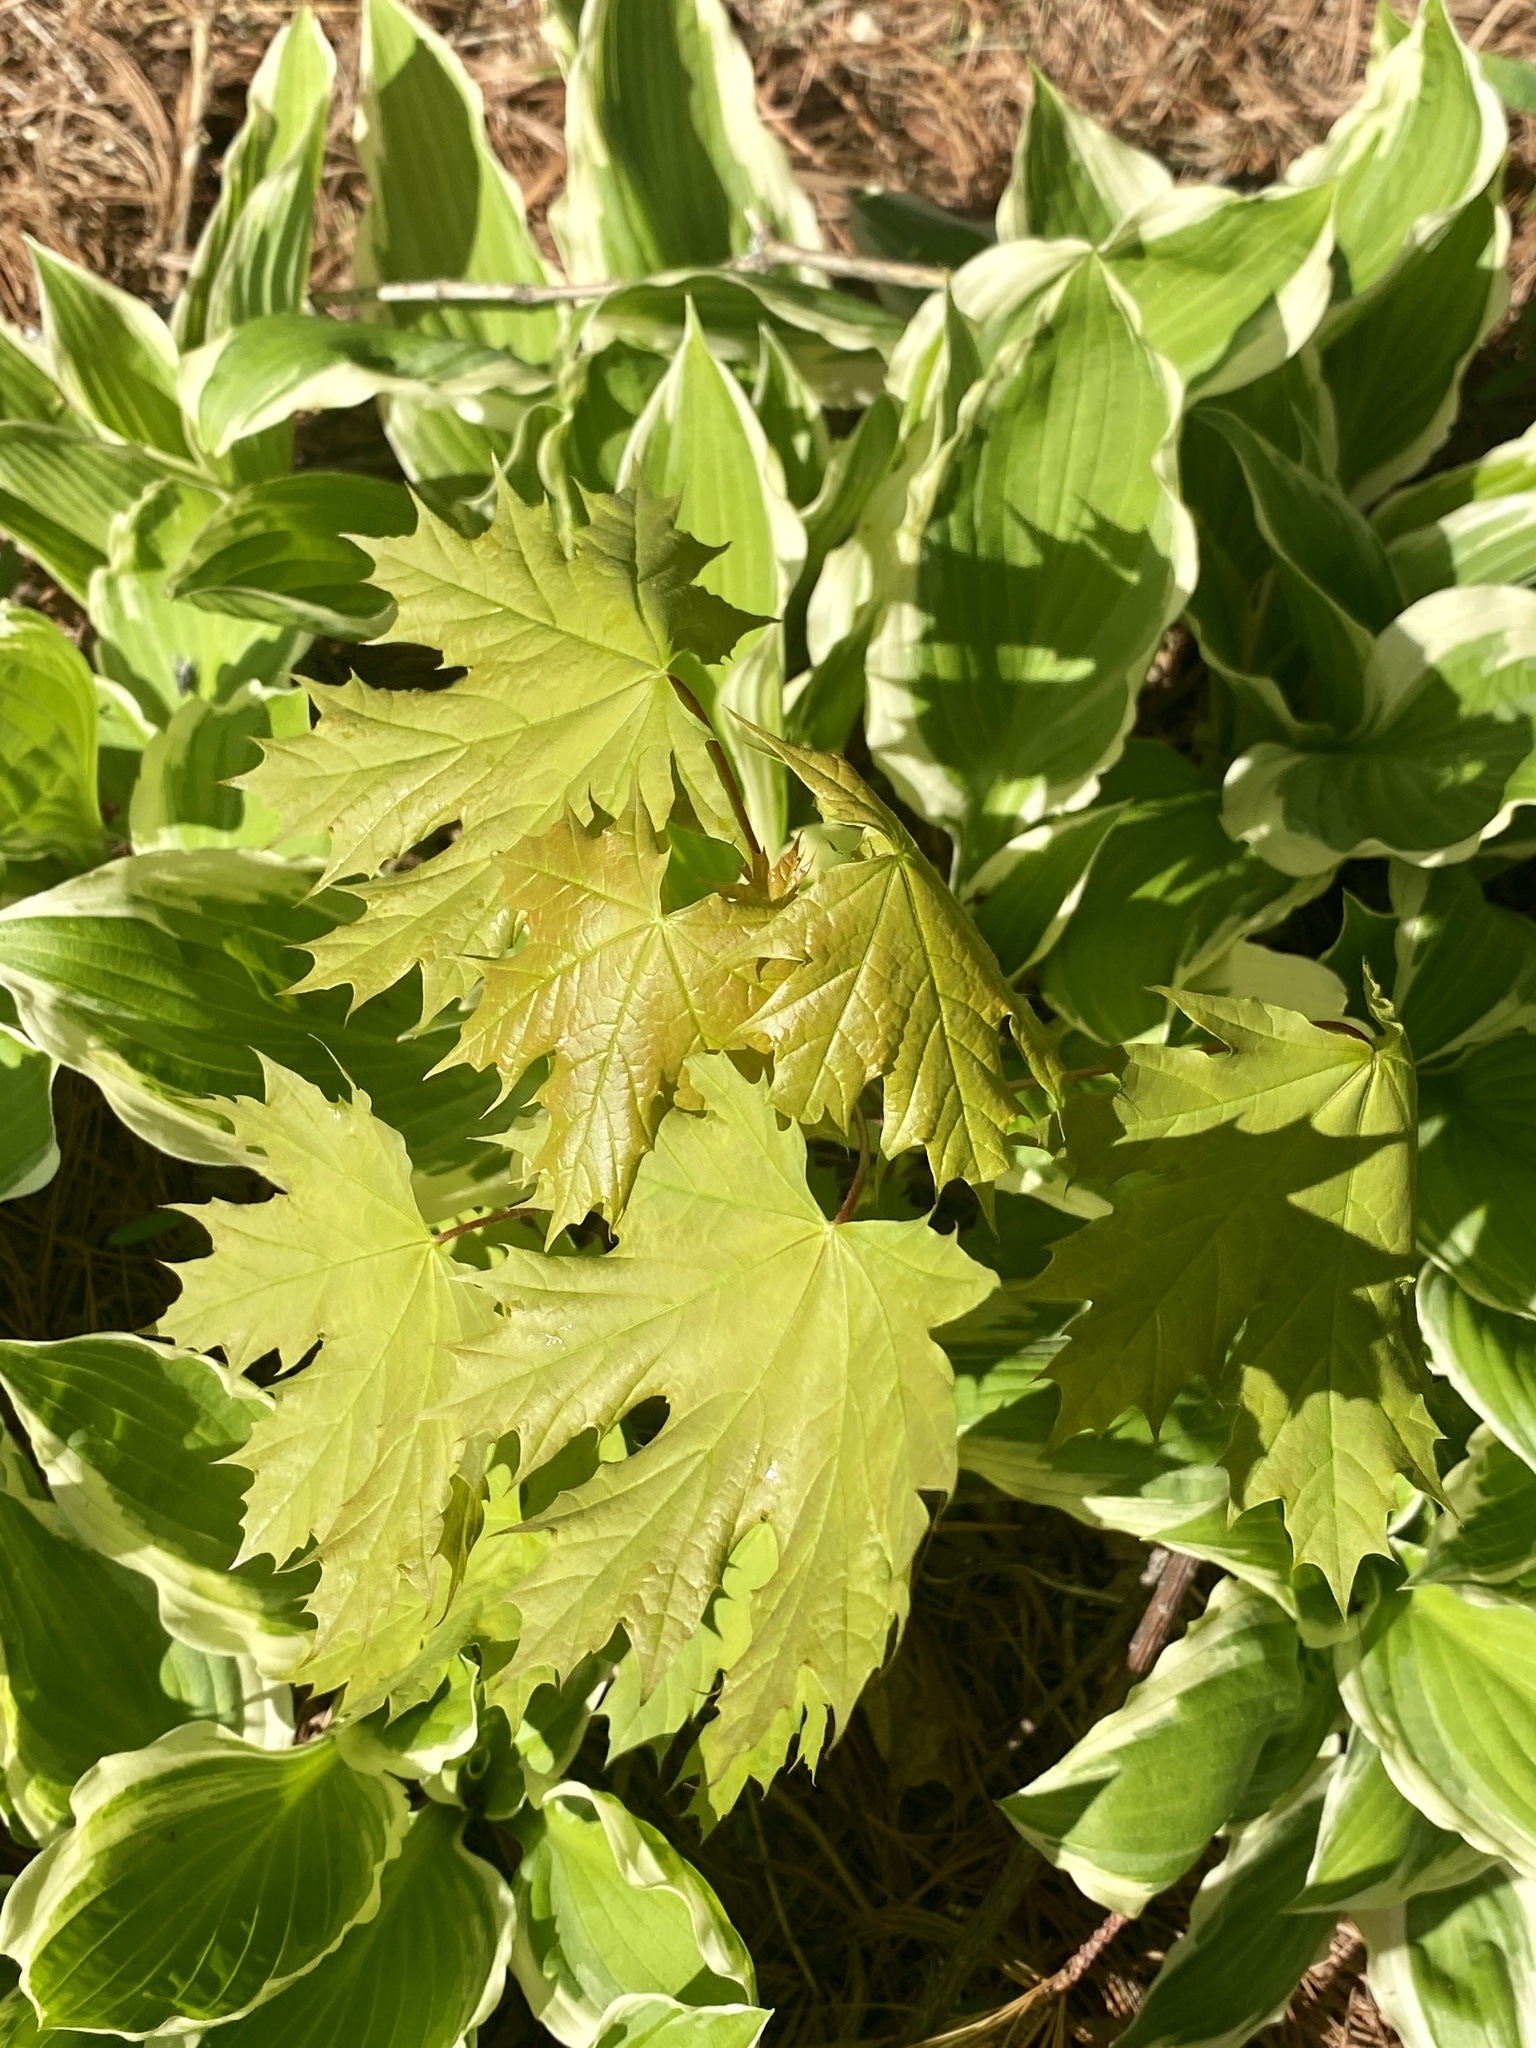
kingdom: Plantae
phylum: Tracheophyta
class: Magnoliopsida
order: Sapindales
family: Sapindaceae
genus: Acer
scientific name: Acer platanoides
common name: Norway maple
